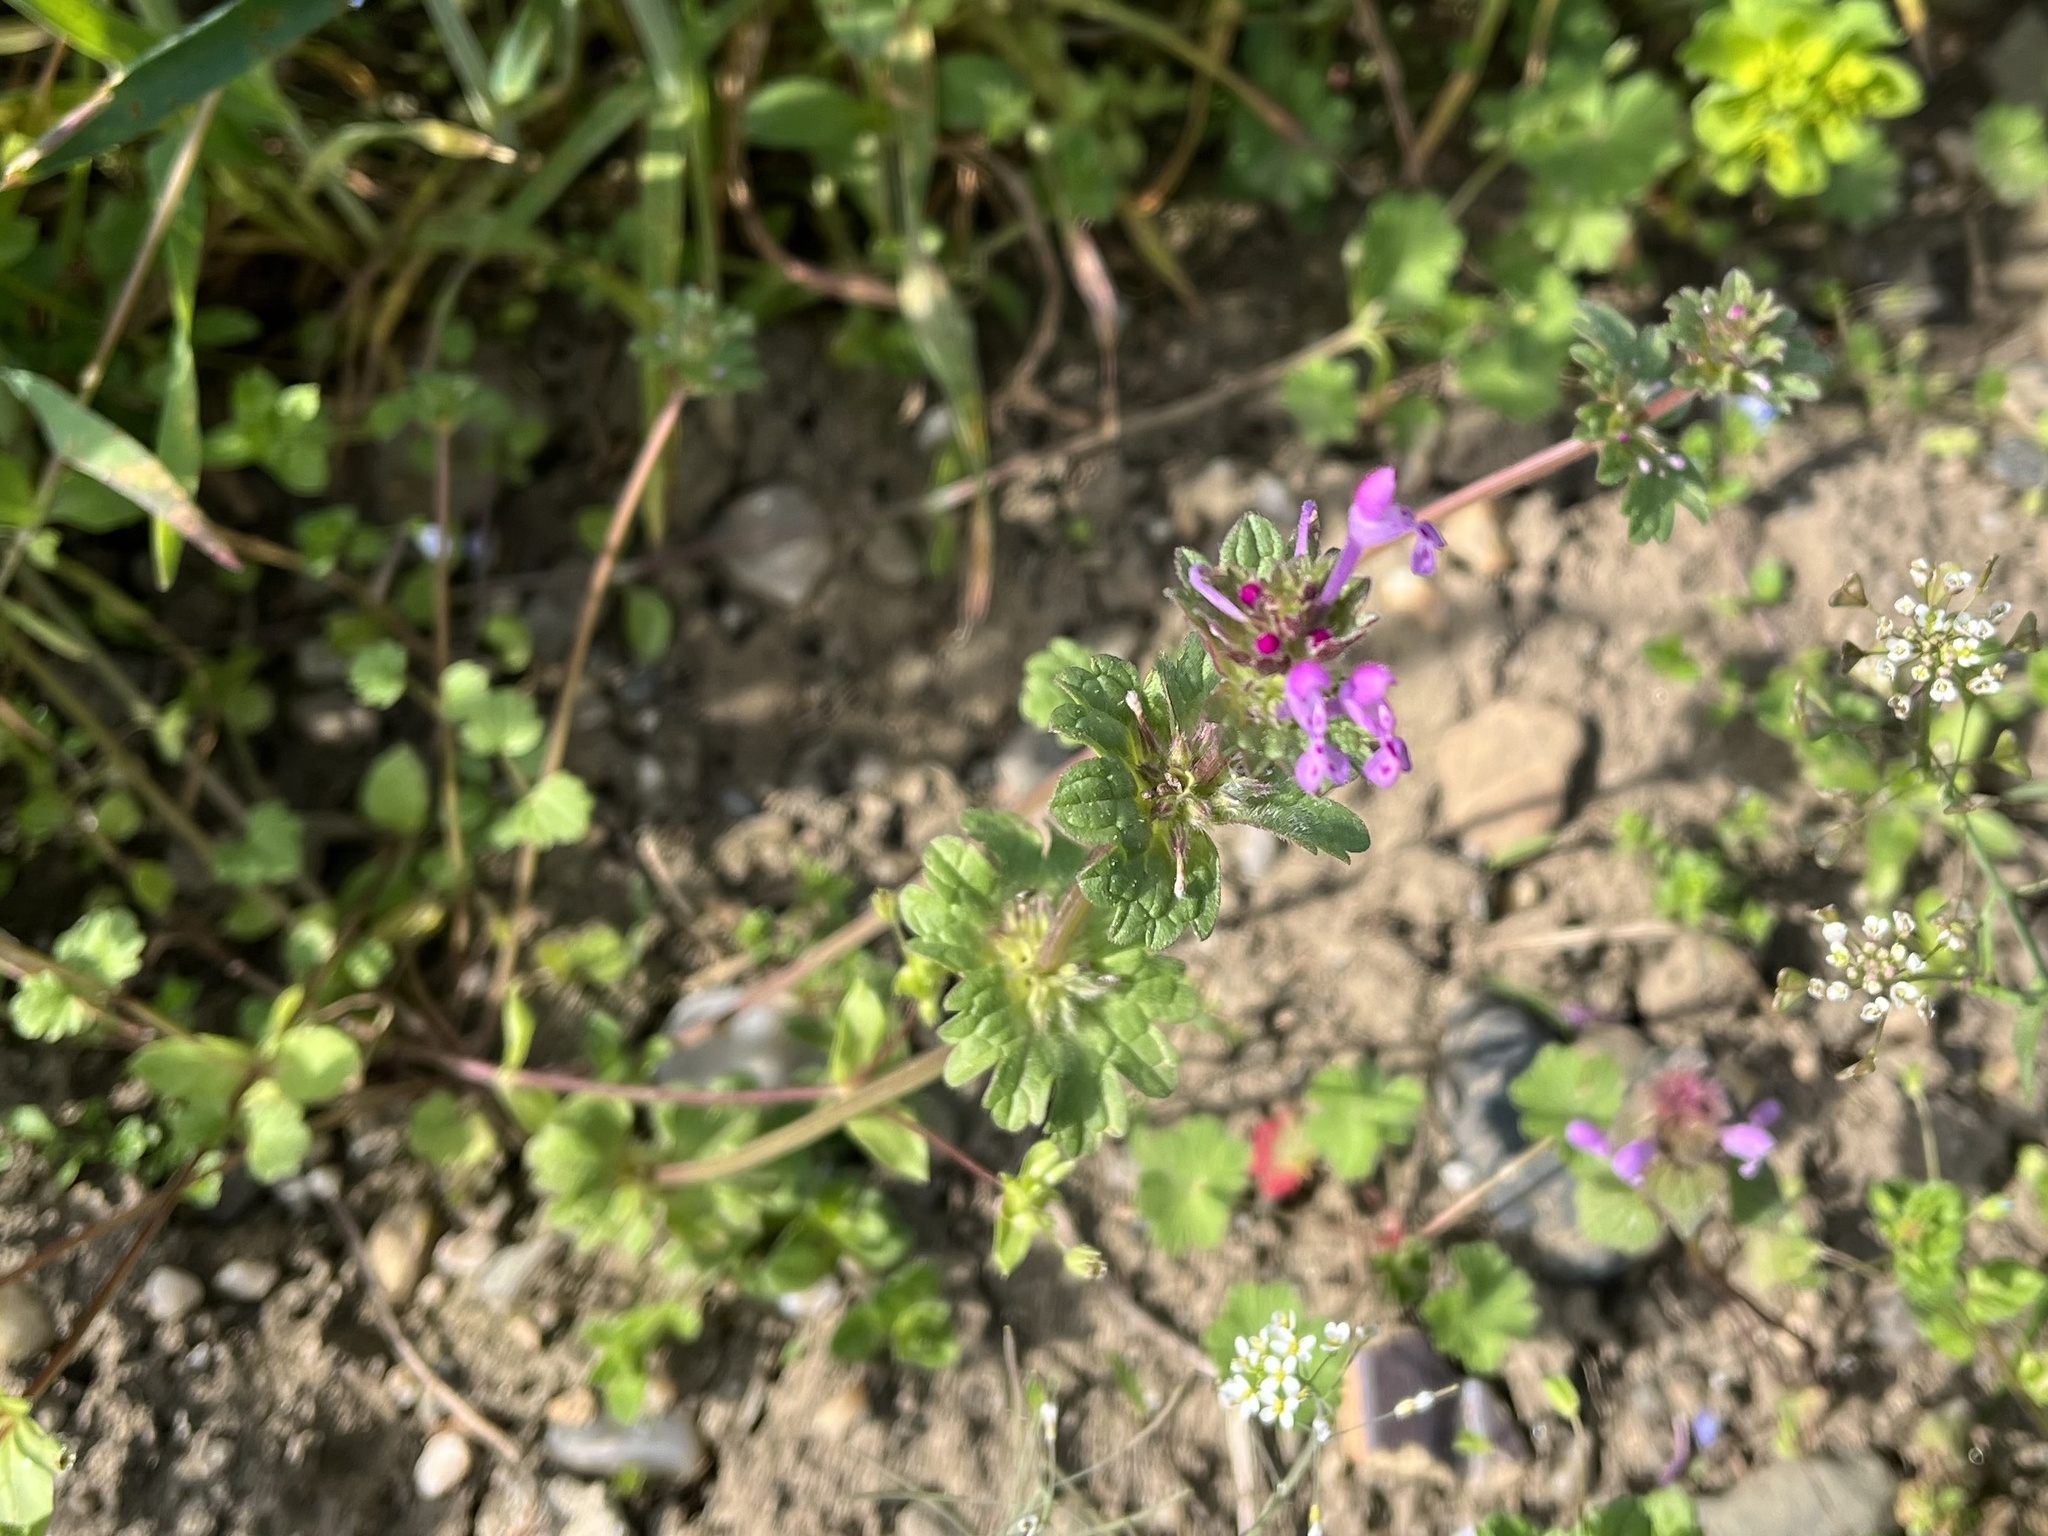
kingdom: Plantae
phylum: Tracheophyta
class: Magnoliopsida
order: Lamiales
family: Lamiaceae
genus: Lamium
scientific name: Lamium amplexicaule
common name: Henbit dead-nettle
